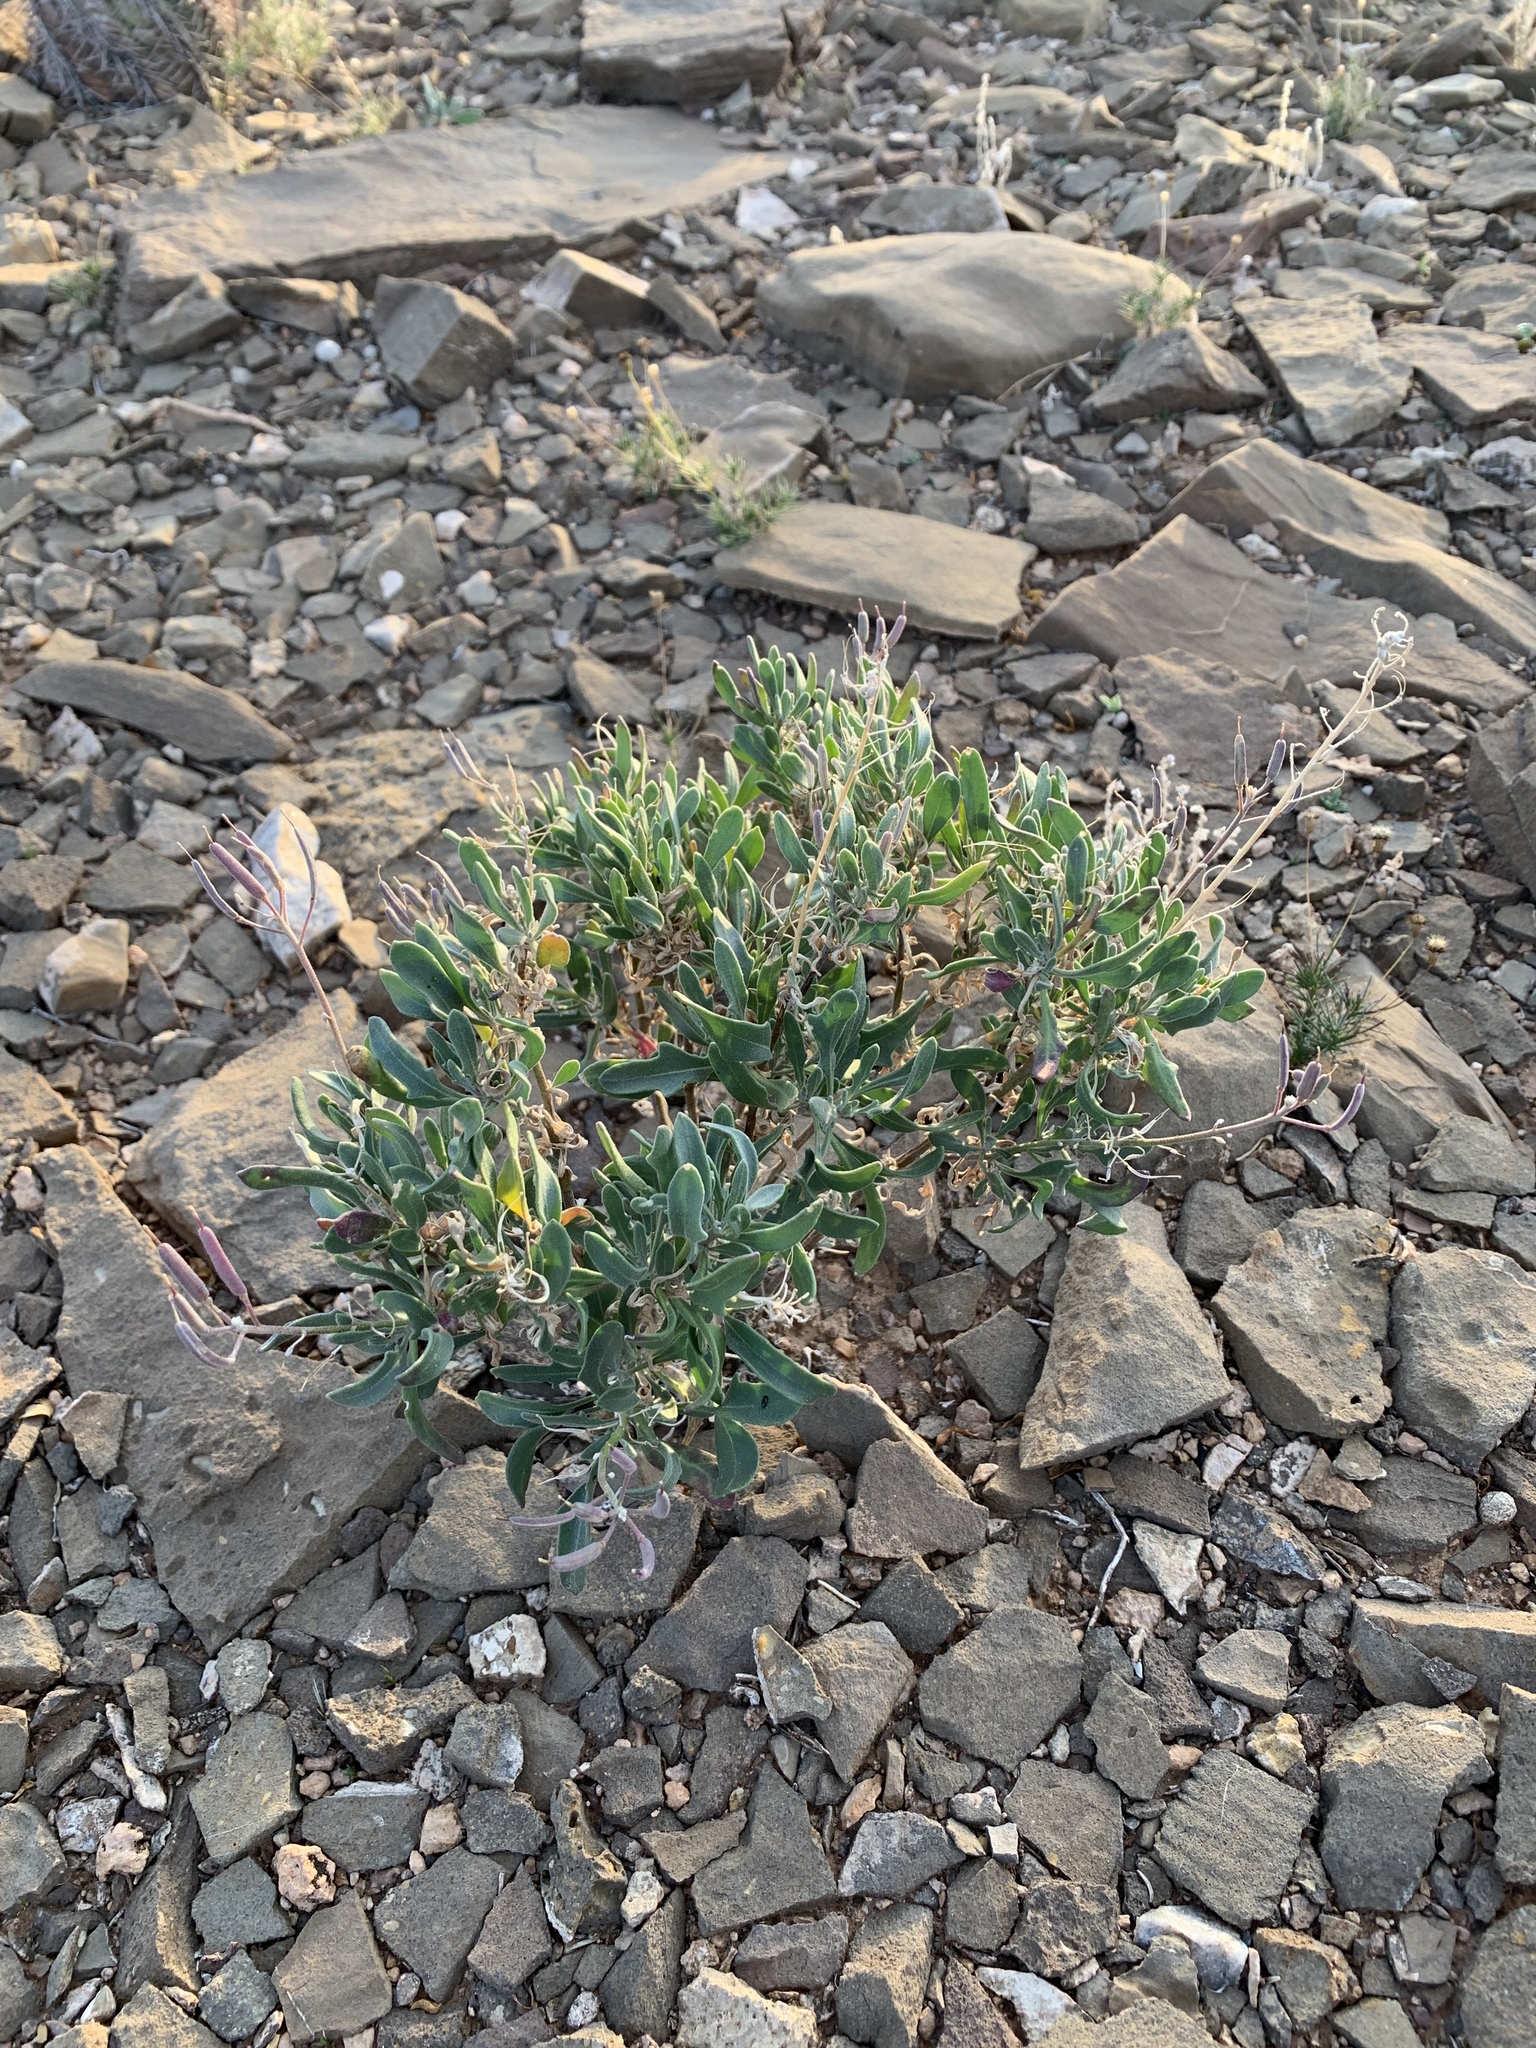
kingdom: Plantae
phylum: Tracheophyta
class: Magnoliopsida
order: Brassicales
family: Brassicaceae
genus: Nerisyrenia
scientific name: Nerisyrenia camporum
